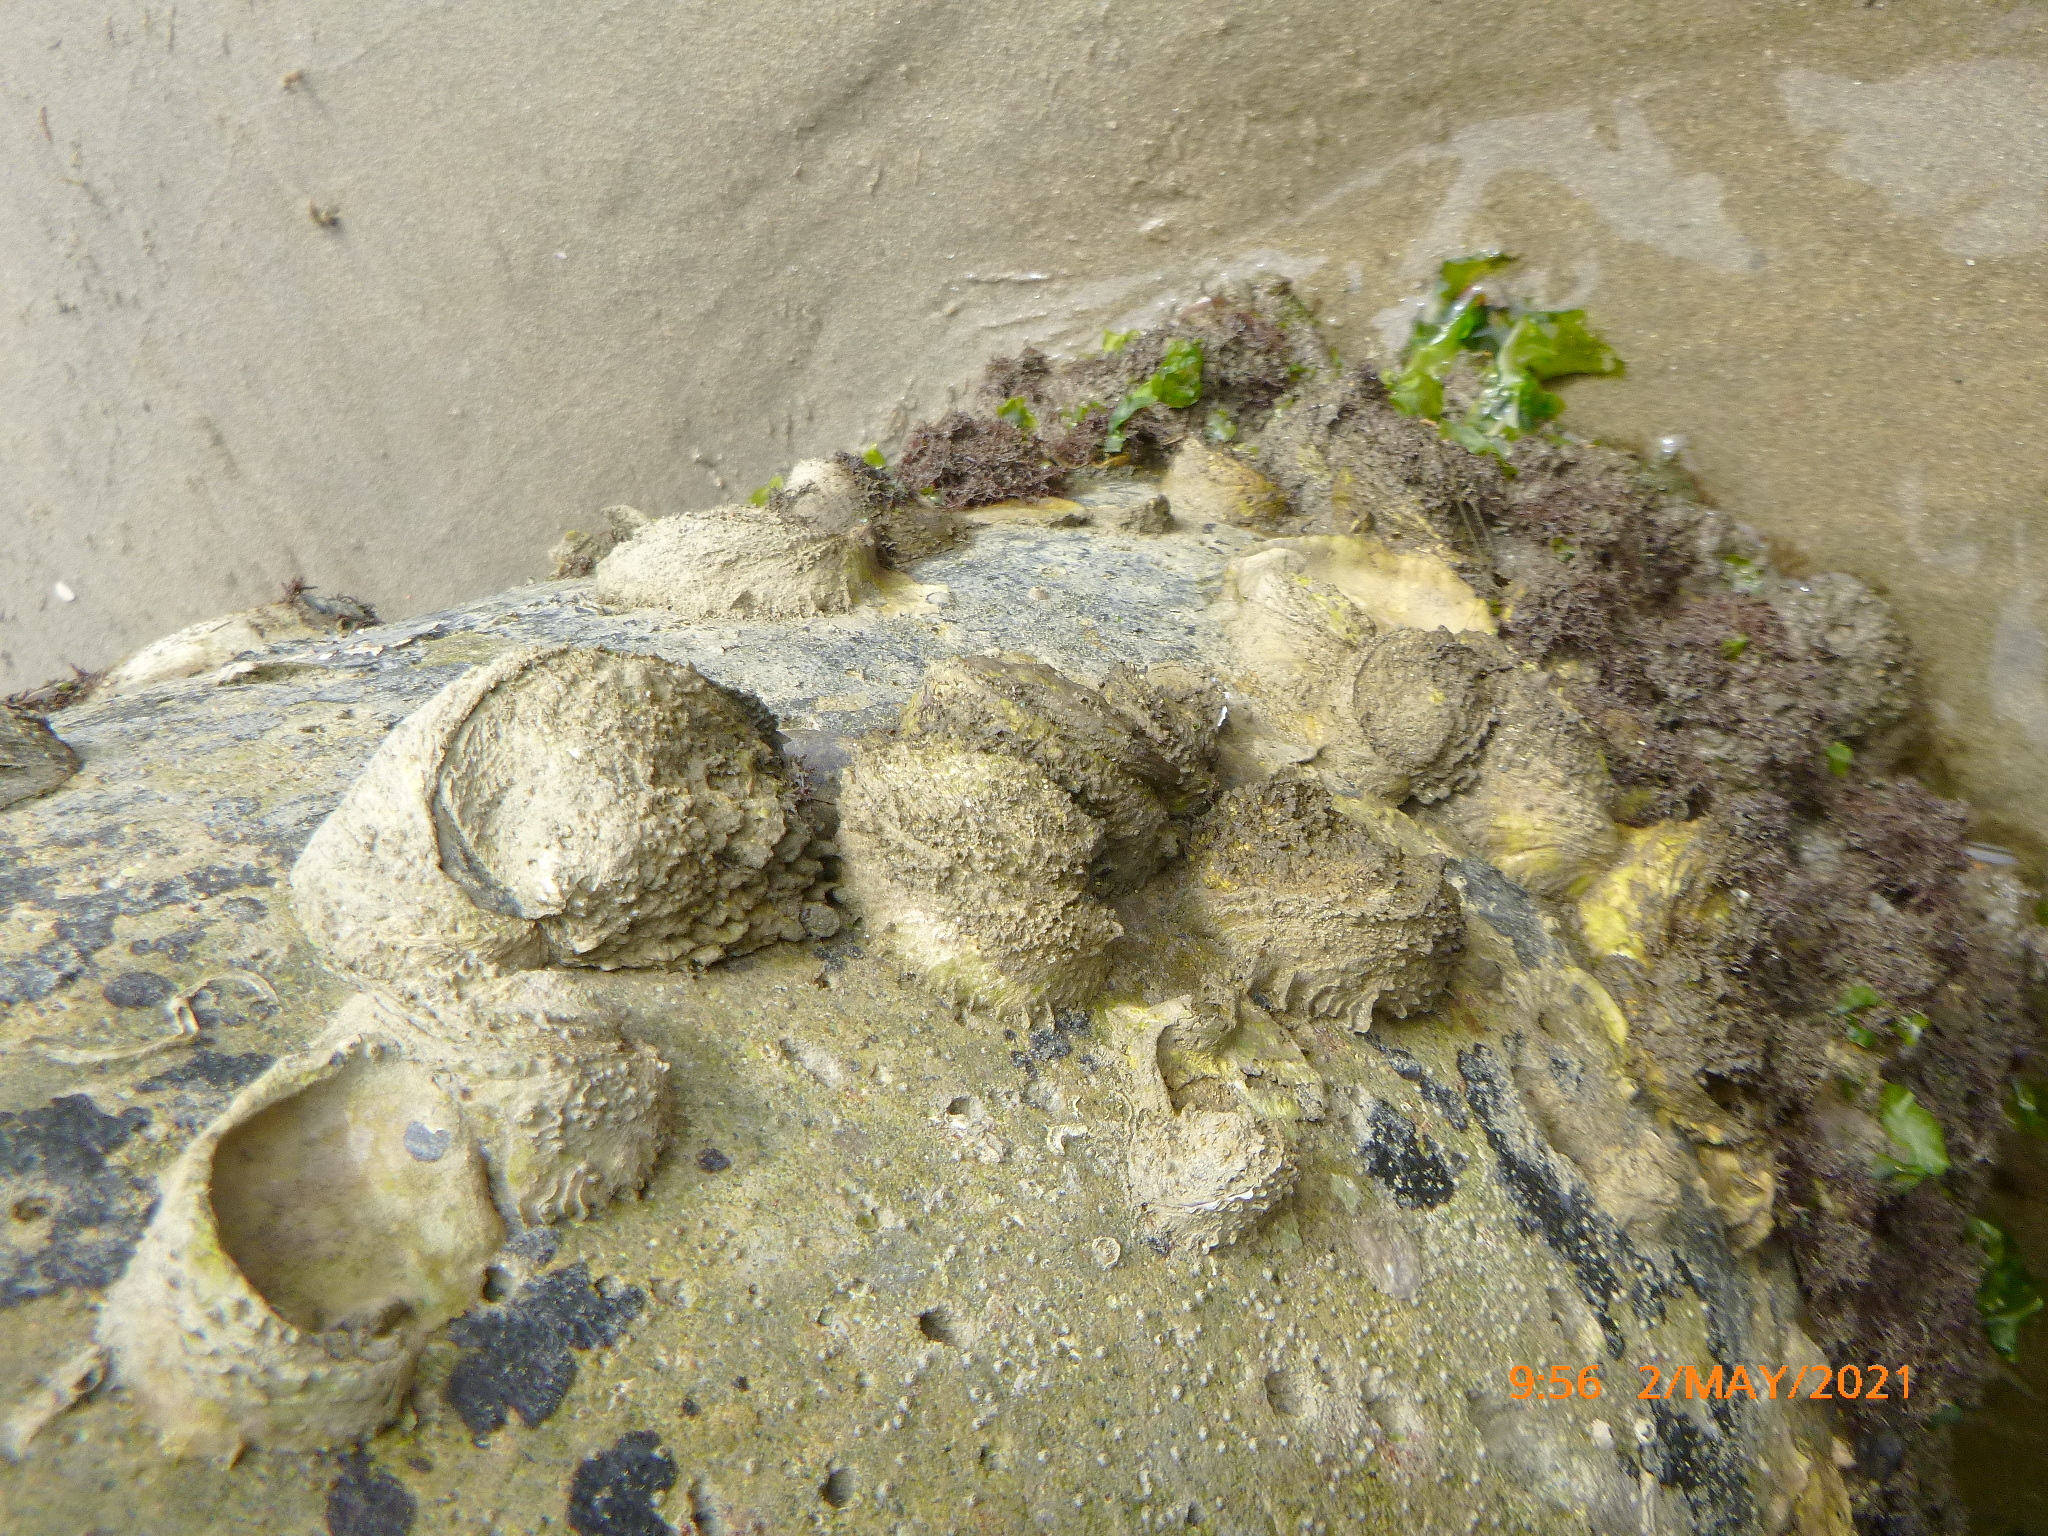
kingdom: Animalia
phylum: Mollusca
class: Bivalvia
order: Venerida
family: Chamidae
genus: Pseudochama
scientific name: Pseudochama exogyra
